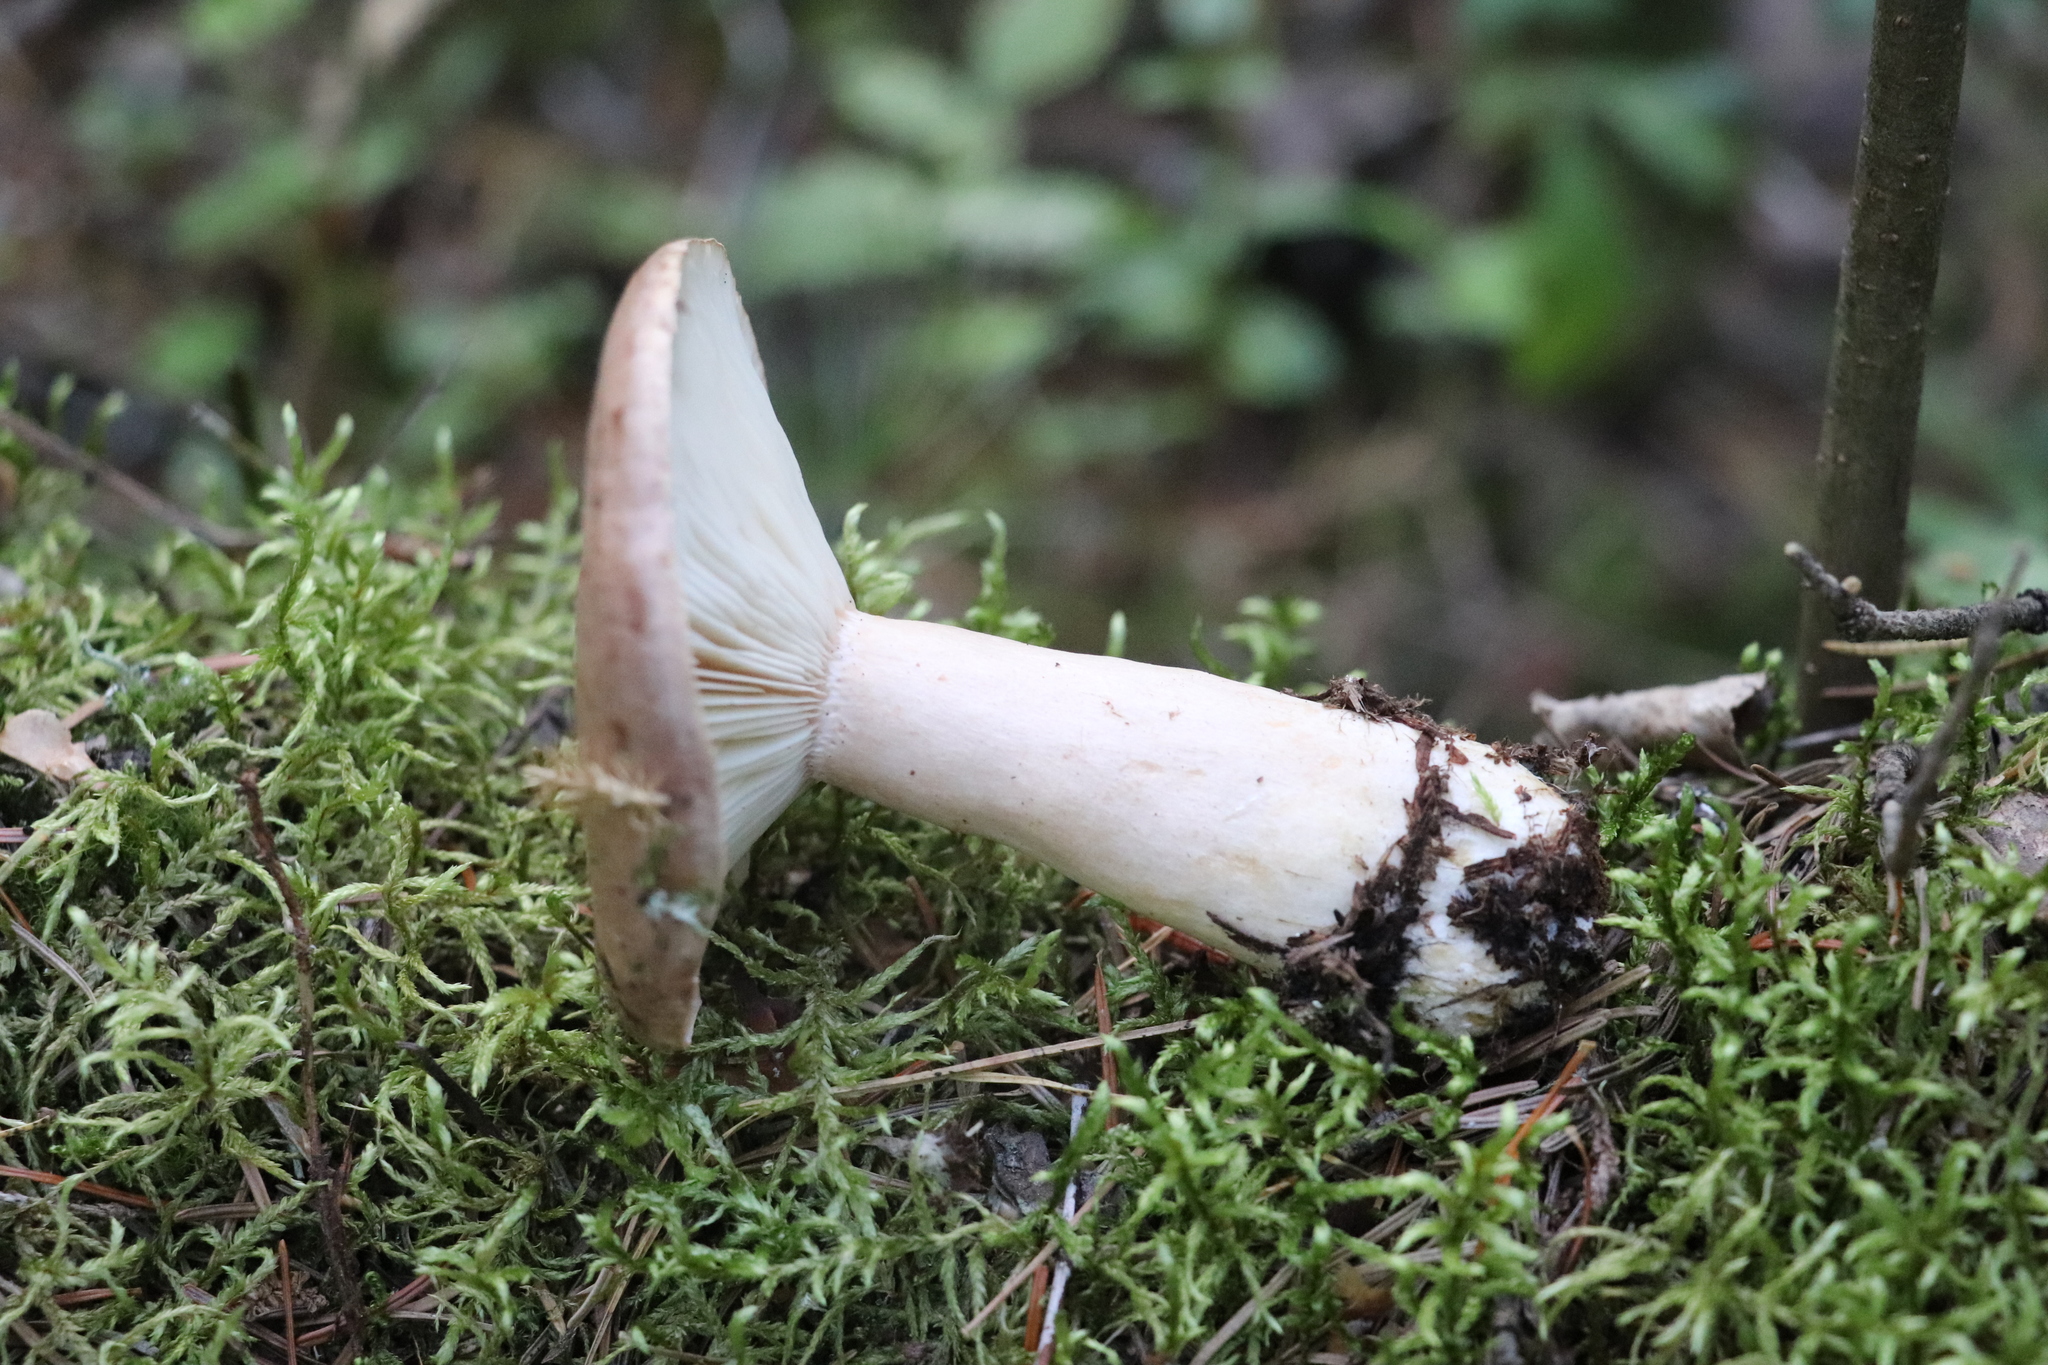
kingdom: Fungi
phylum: Basidiomycota
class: Agaricomycetes
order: Russulales
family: Russulaceae
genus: Lactarius
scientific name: Lactarius trivialis
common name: Tacked milkcap
